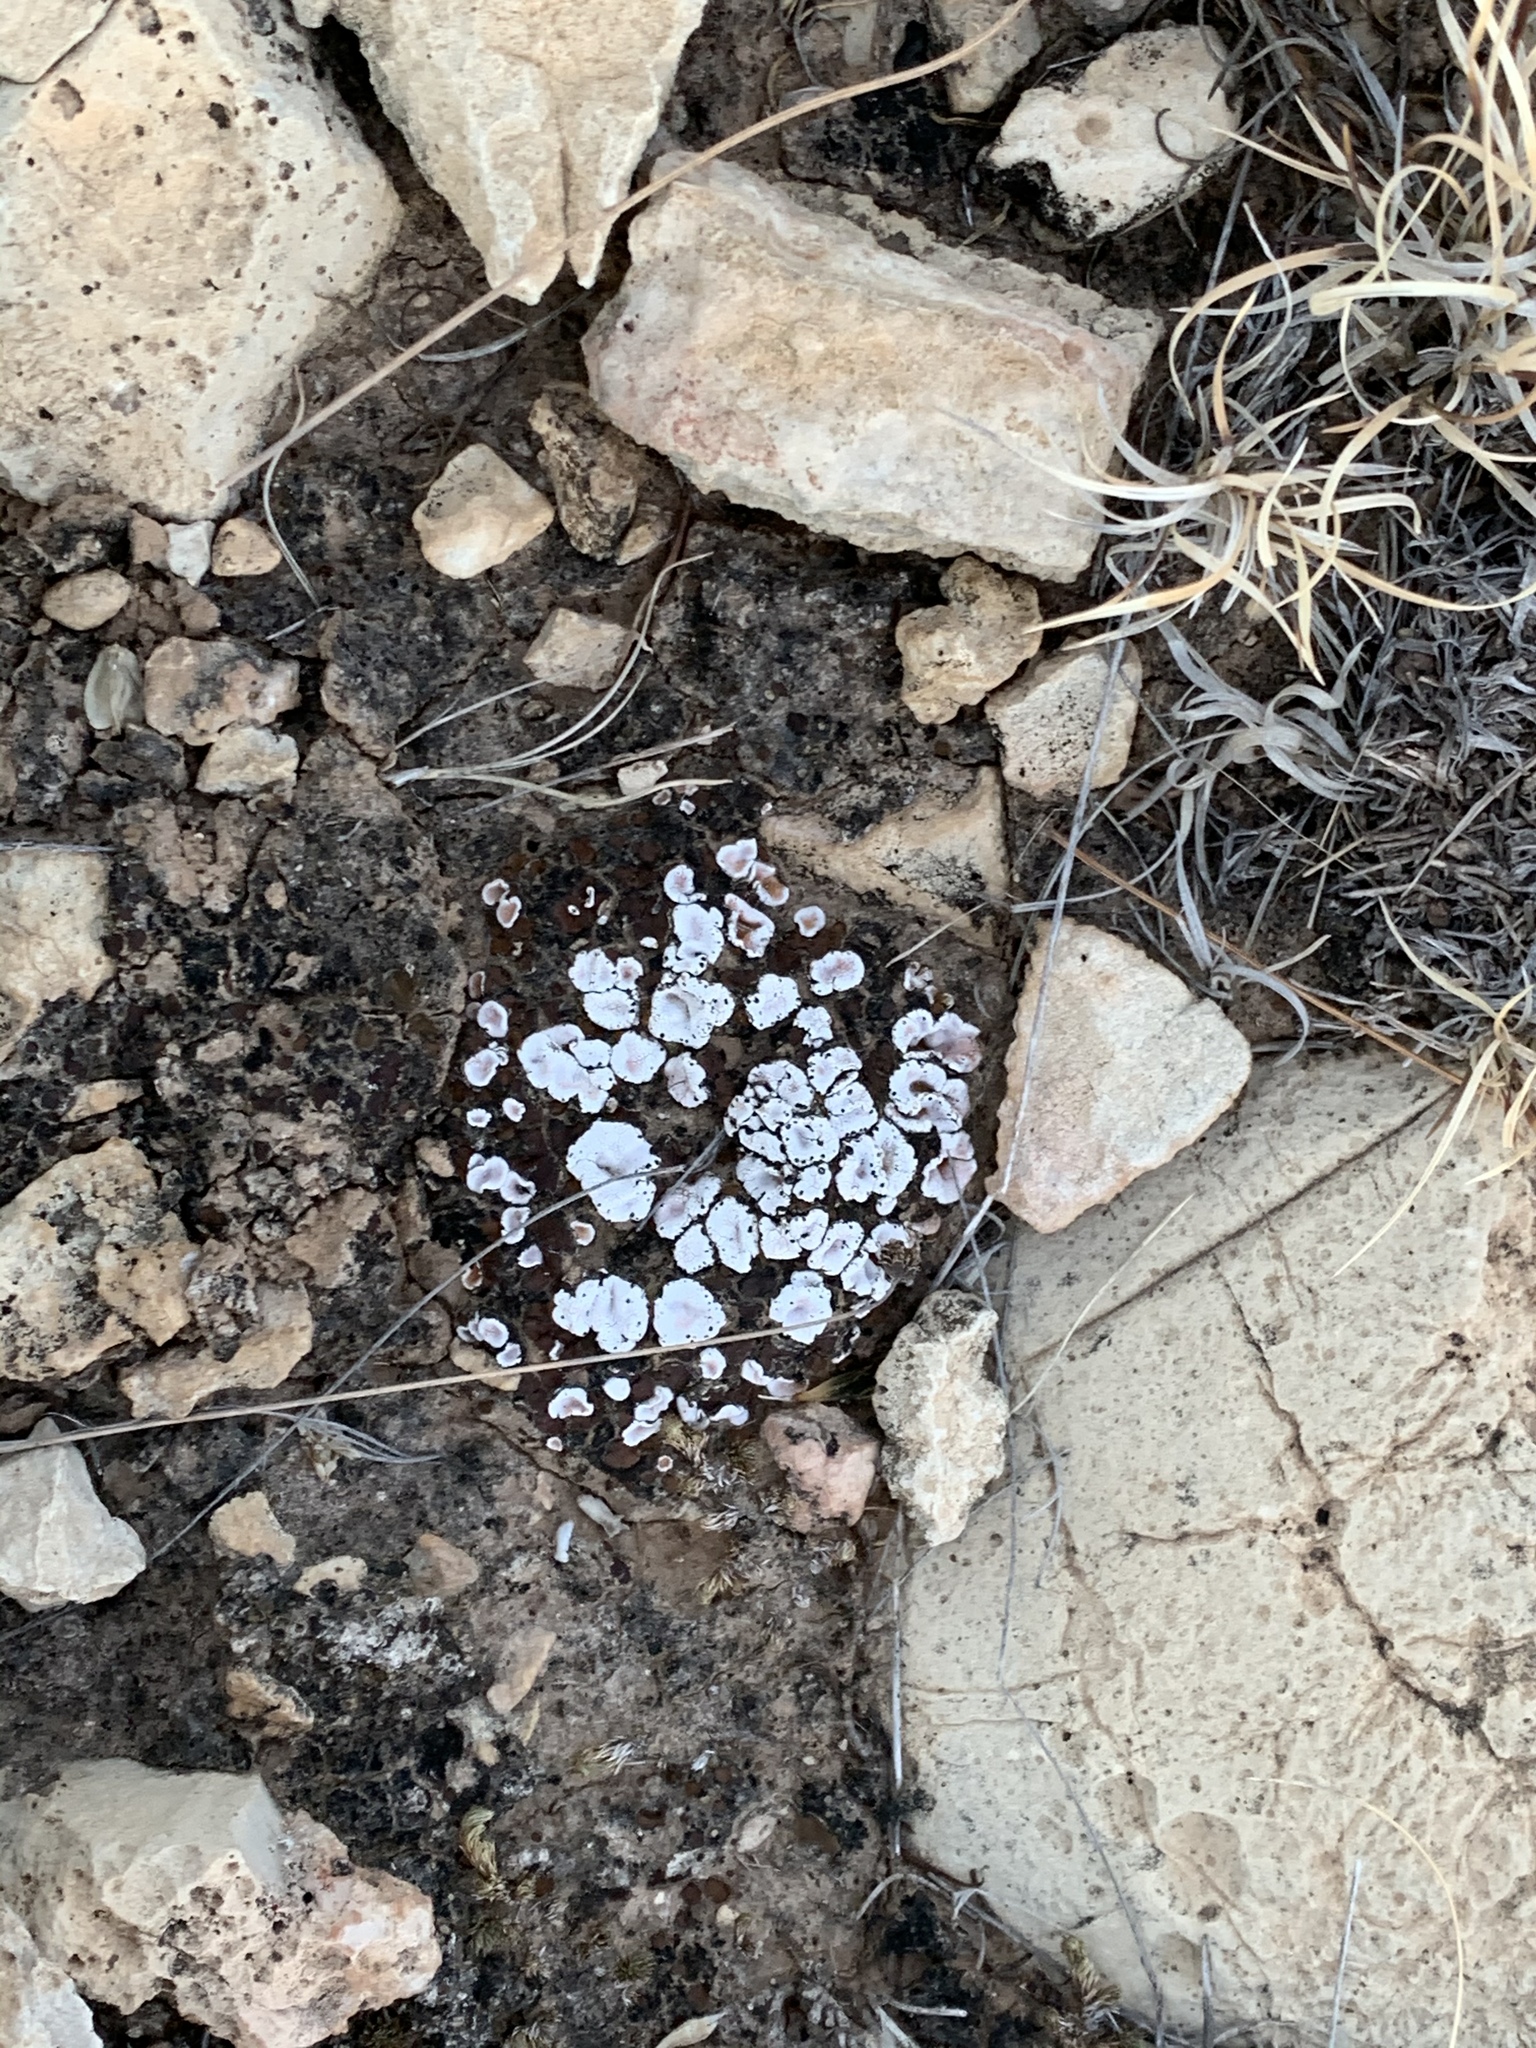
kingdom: Fungi
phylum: Ascomycota
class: Lecanoromycetes
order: Lecanorales
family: Psoraceae
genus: Psora
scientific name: Psora crenata
